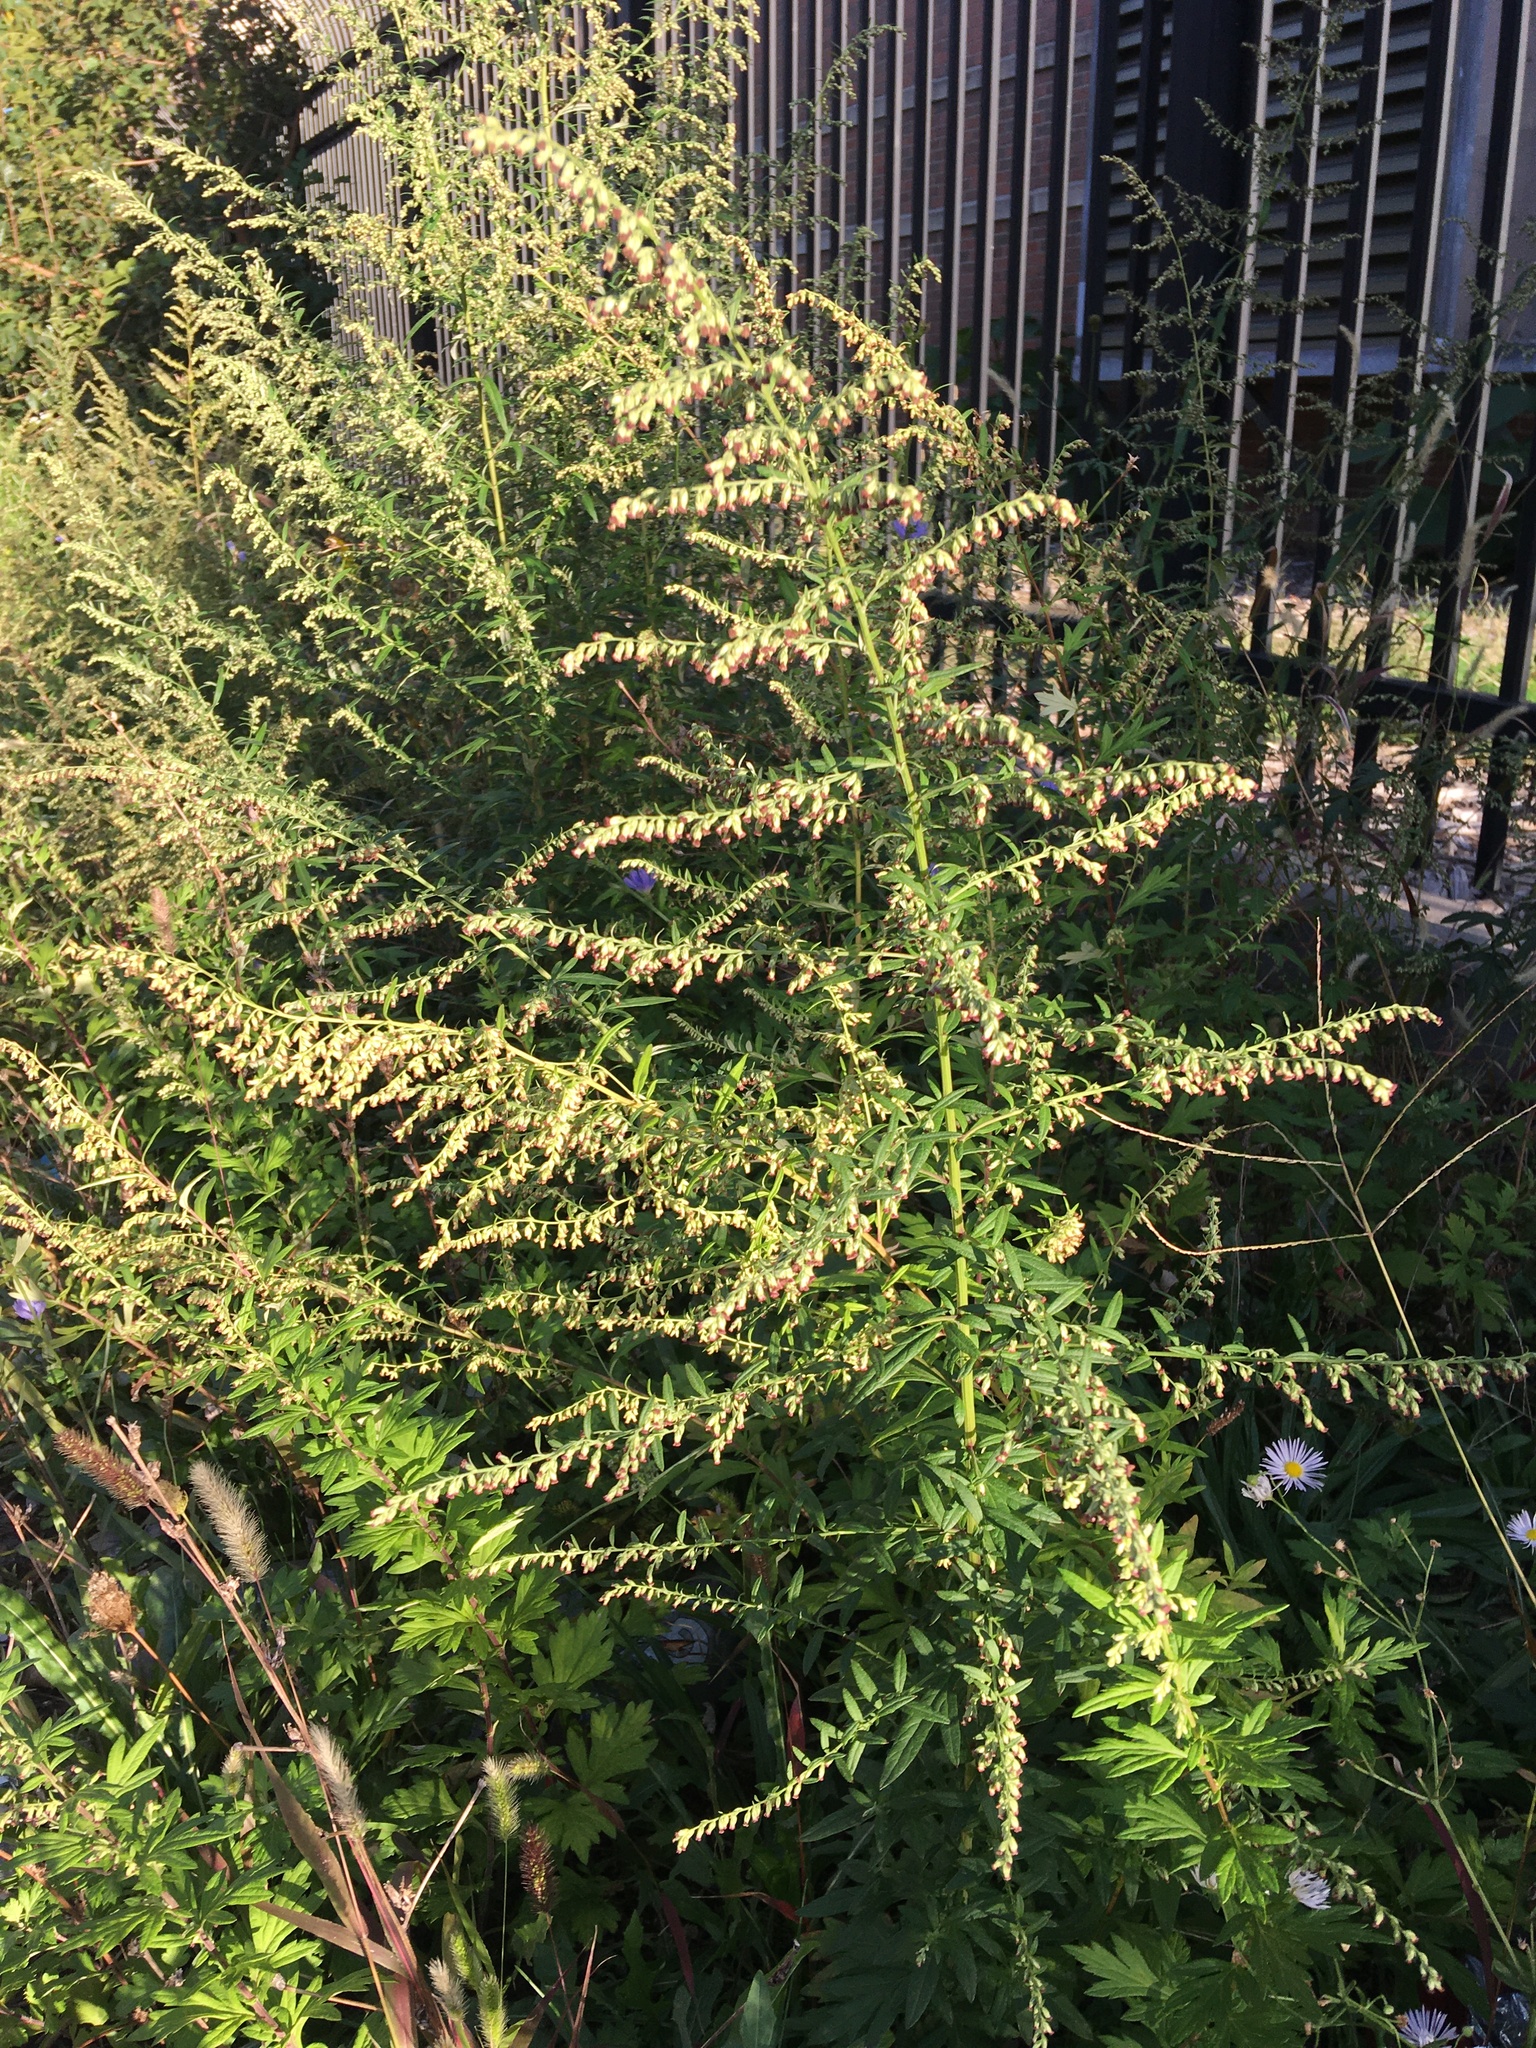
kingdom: Plantae
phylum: Tracheophyta
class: Magnoliopsida
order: Asterales
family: Asteraceae
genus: Artemisia
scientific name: Artemisia vulgaris
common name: Mugwort
